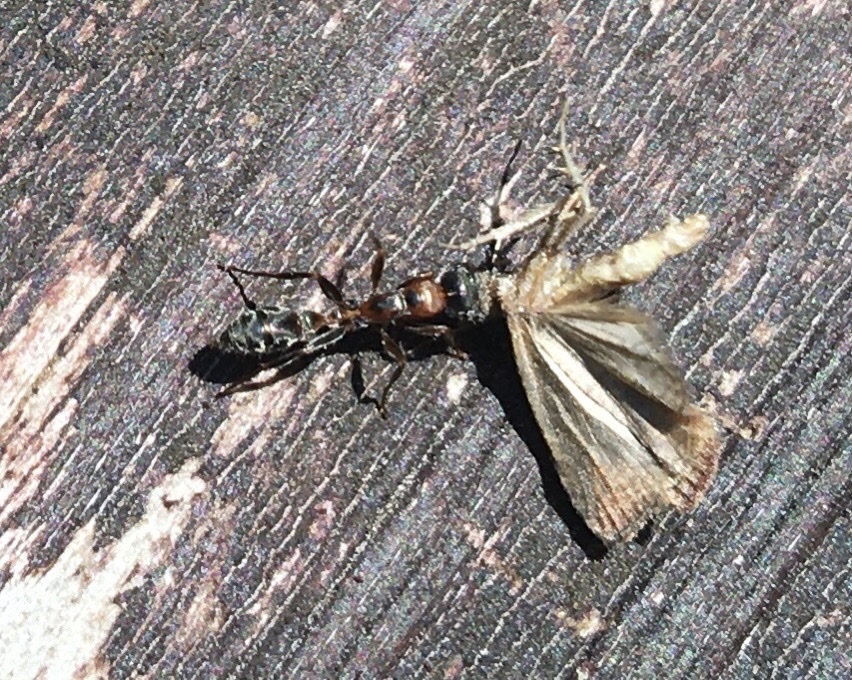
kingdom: Animalia
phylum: Arthropoda
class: Insecta
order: Hymenoptera
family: Formicidae
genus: Pseudomyrmex
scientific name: Pseudomyrmex gracilis
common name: Graceful twig ant
